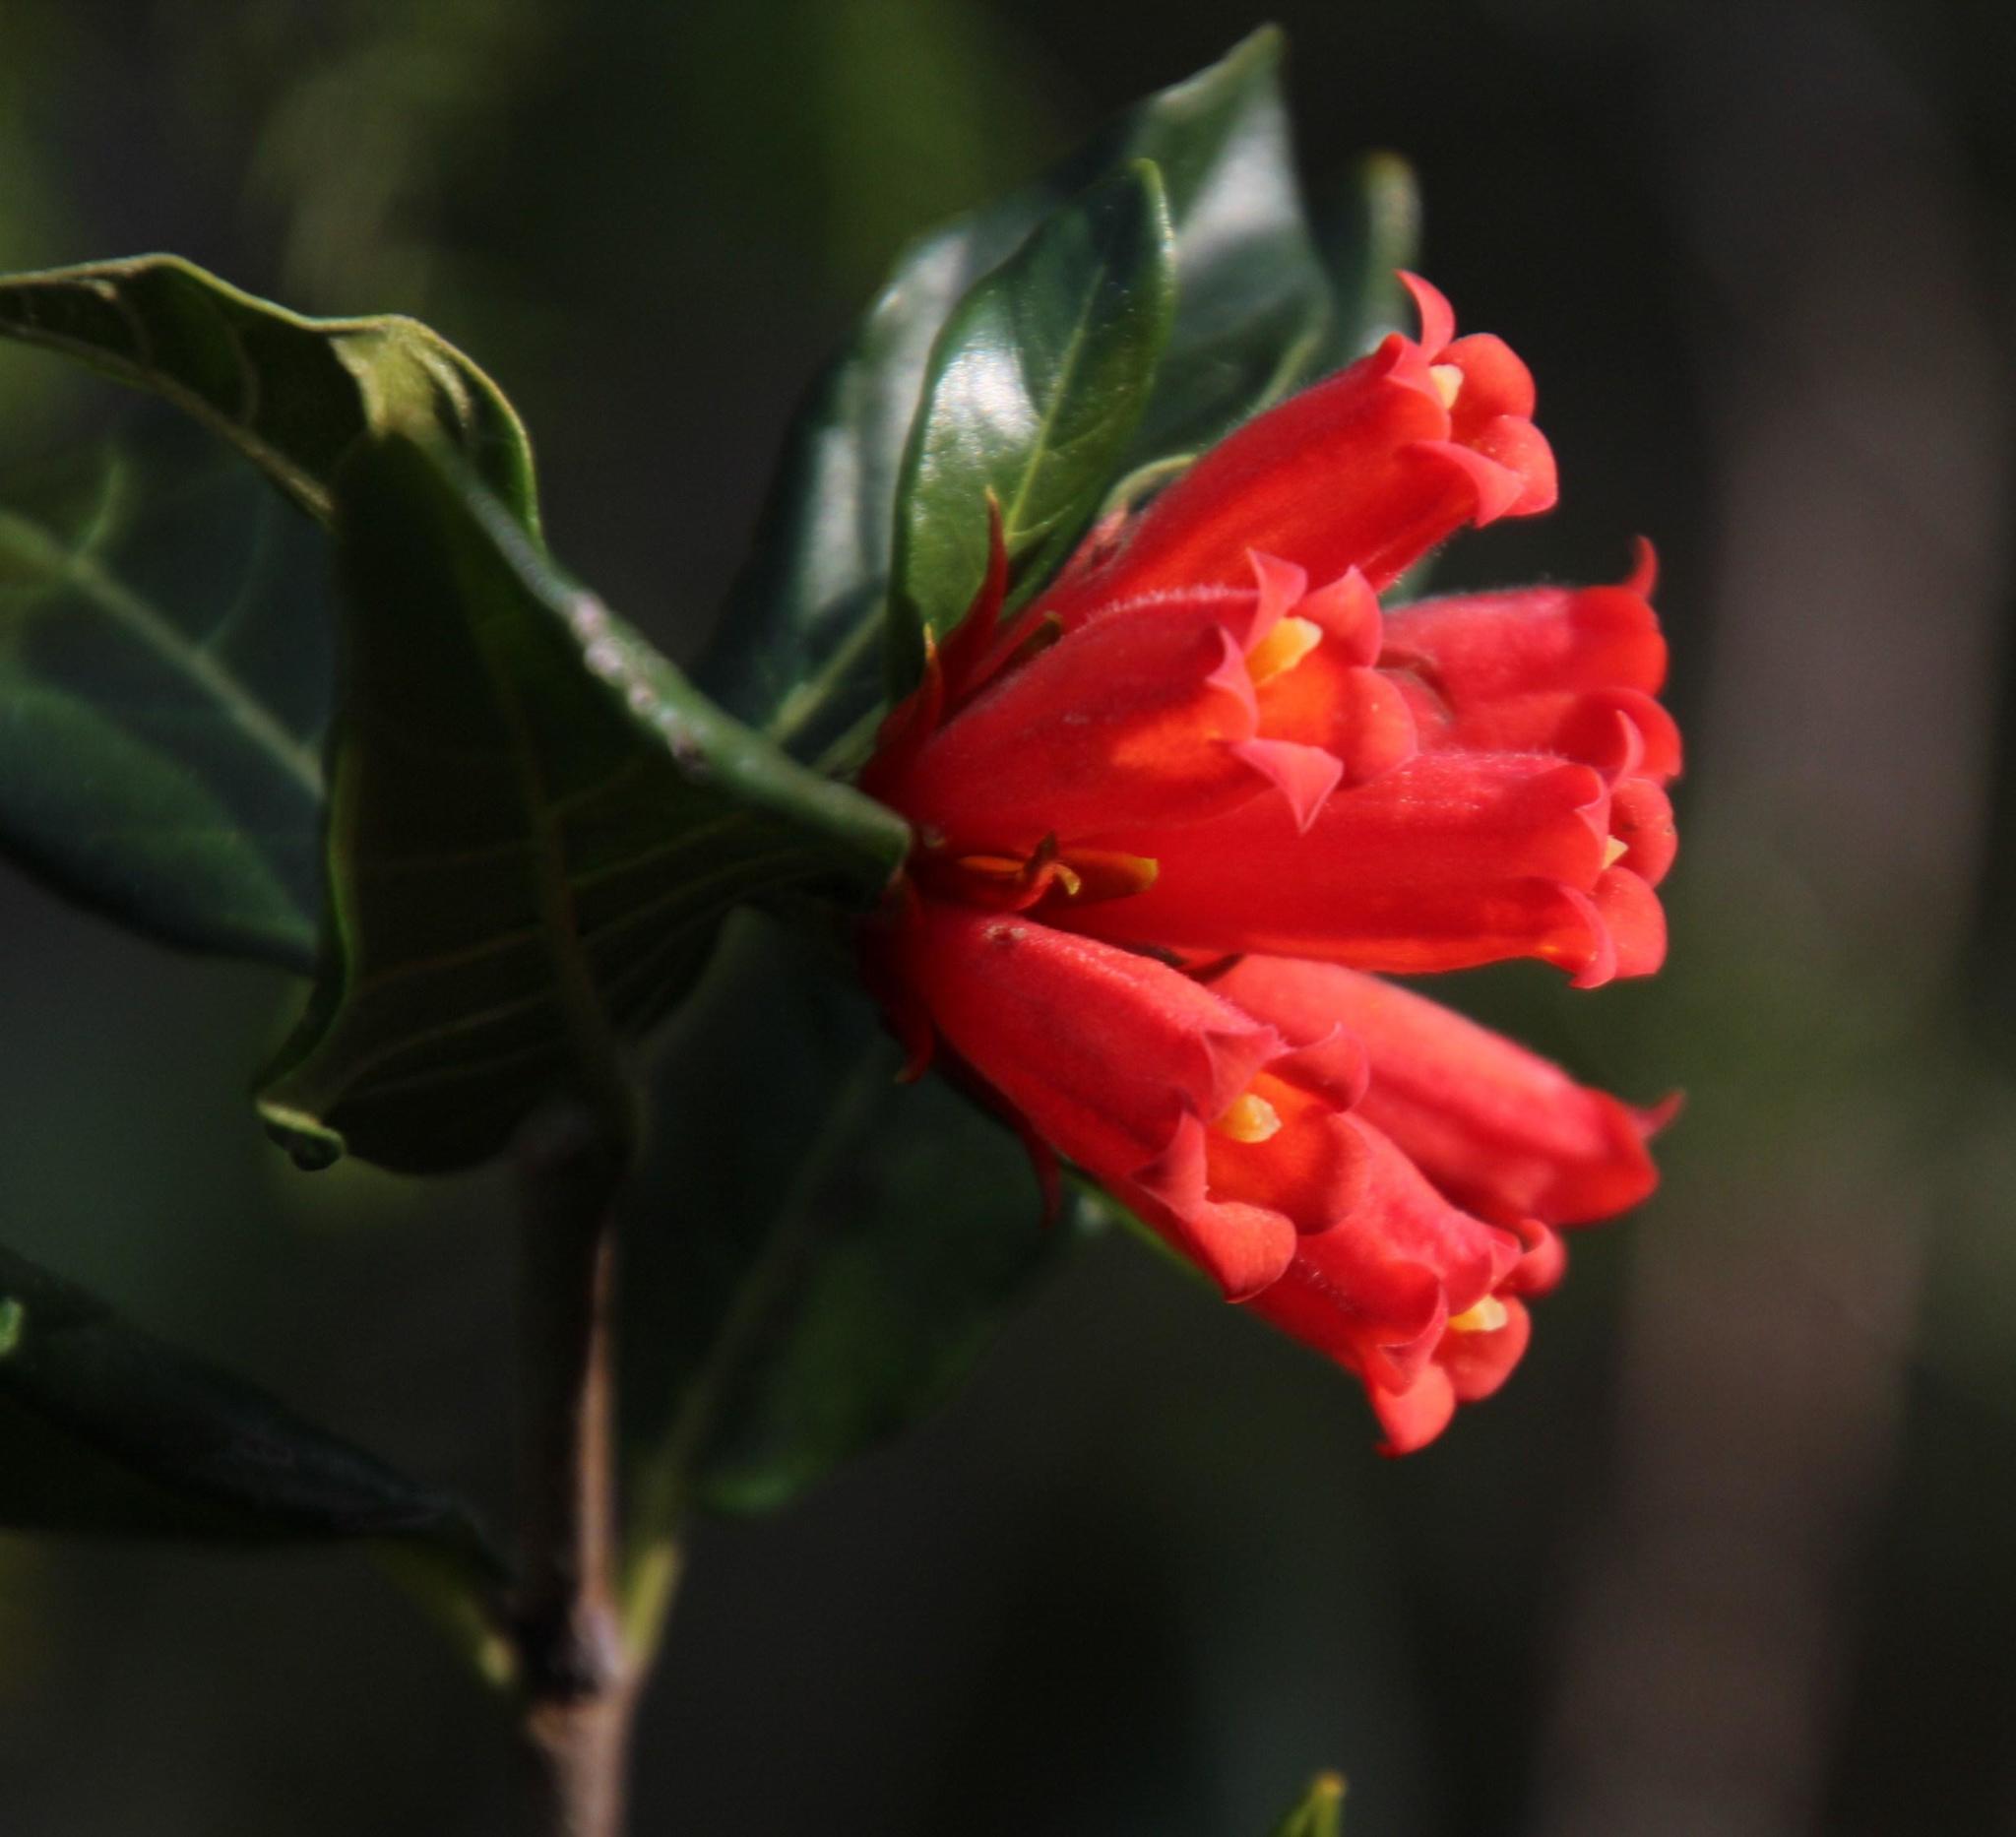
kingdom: Plantae
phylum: Tracheophyta
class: Magnoliopsida
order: Gentianales
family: Rubiaceae
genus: Burchellia
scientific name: Burchellia bubalina
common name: Wild pomegranate
